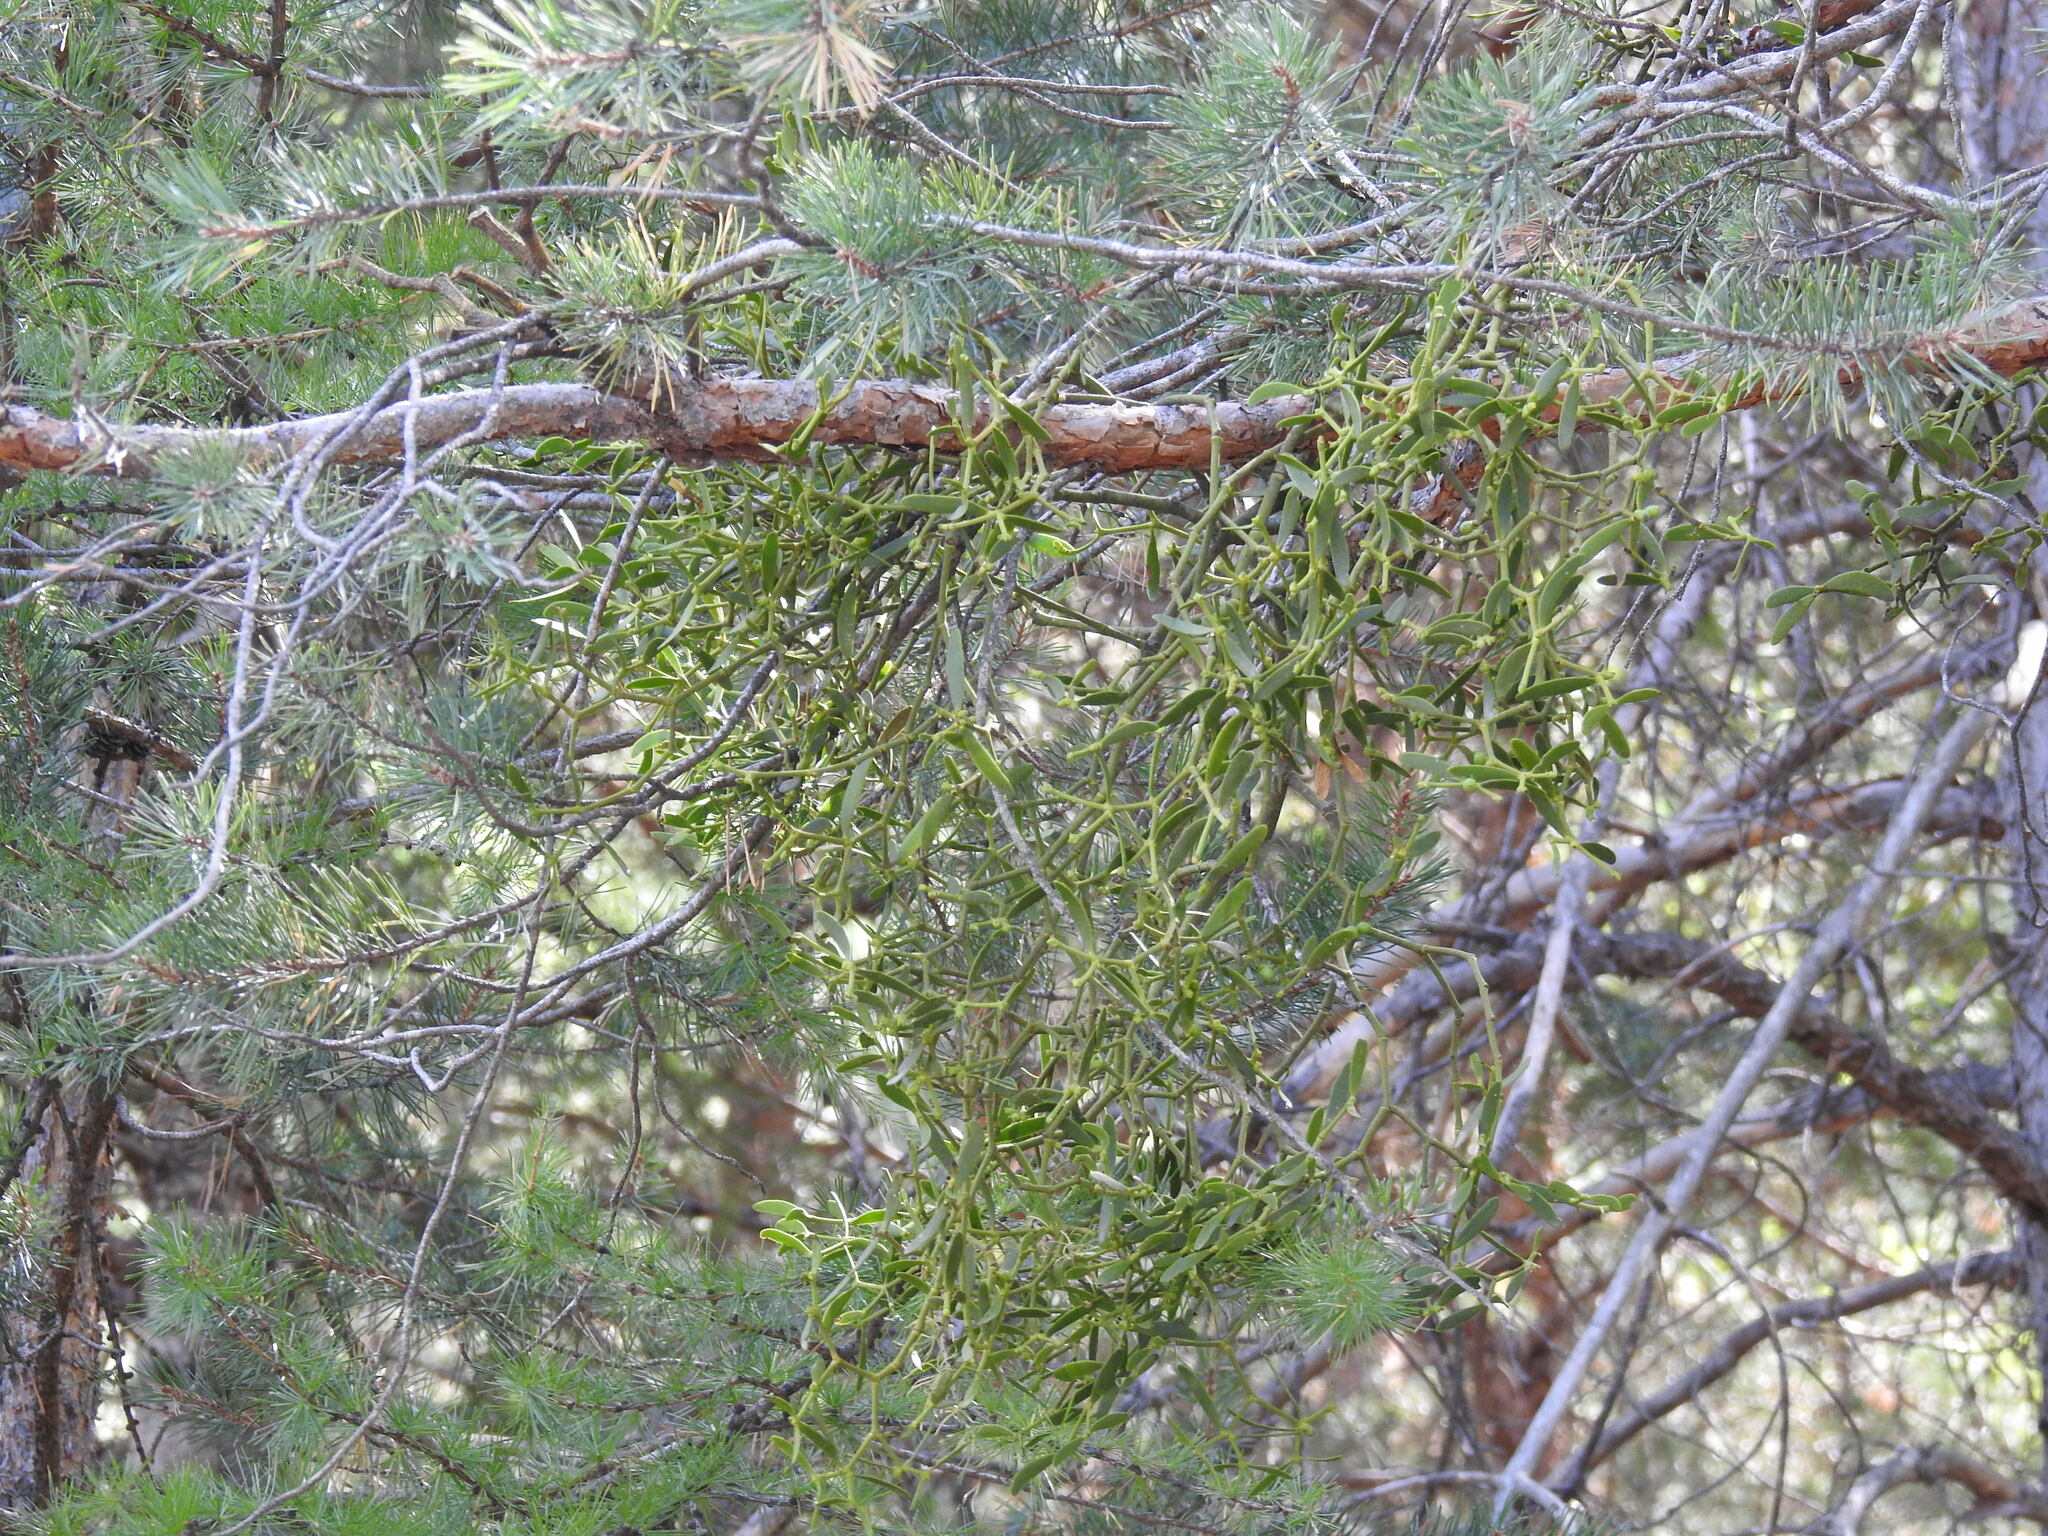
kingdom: Plantae
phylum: Tracheophyta
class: Magnoliopsida
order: Santalales
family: Viscaceae
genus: Viscum
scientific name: Viscum laxum
